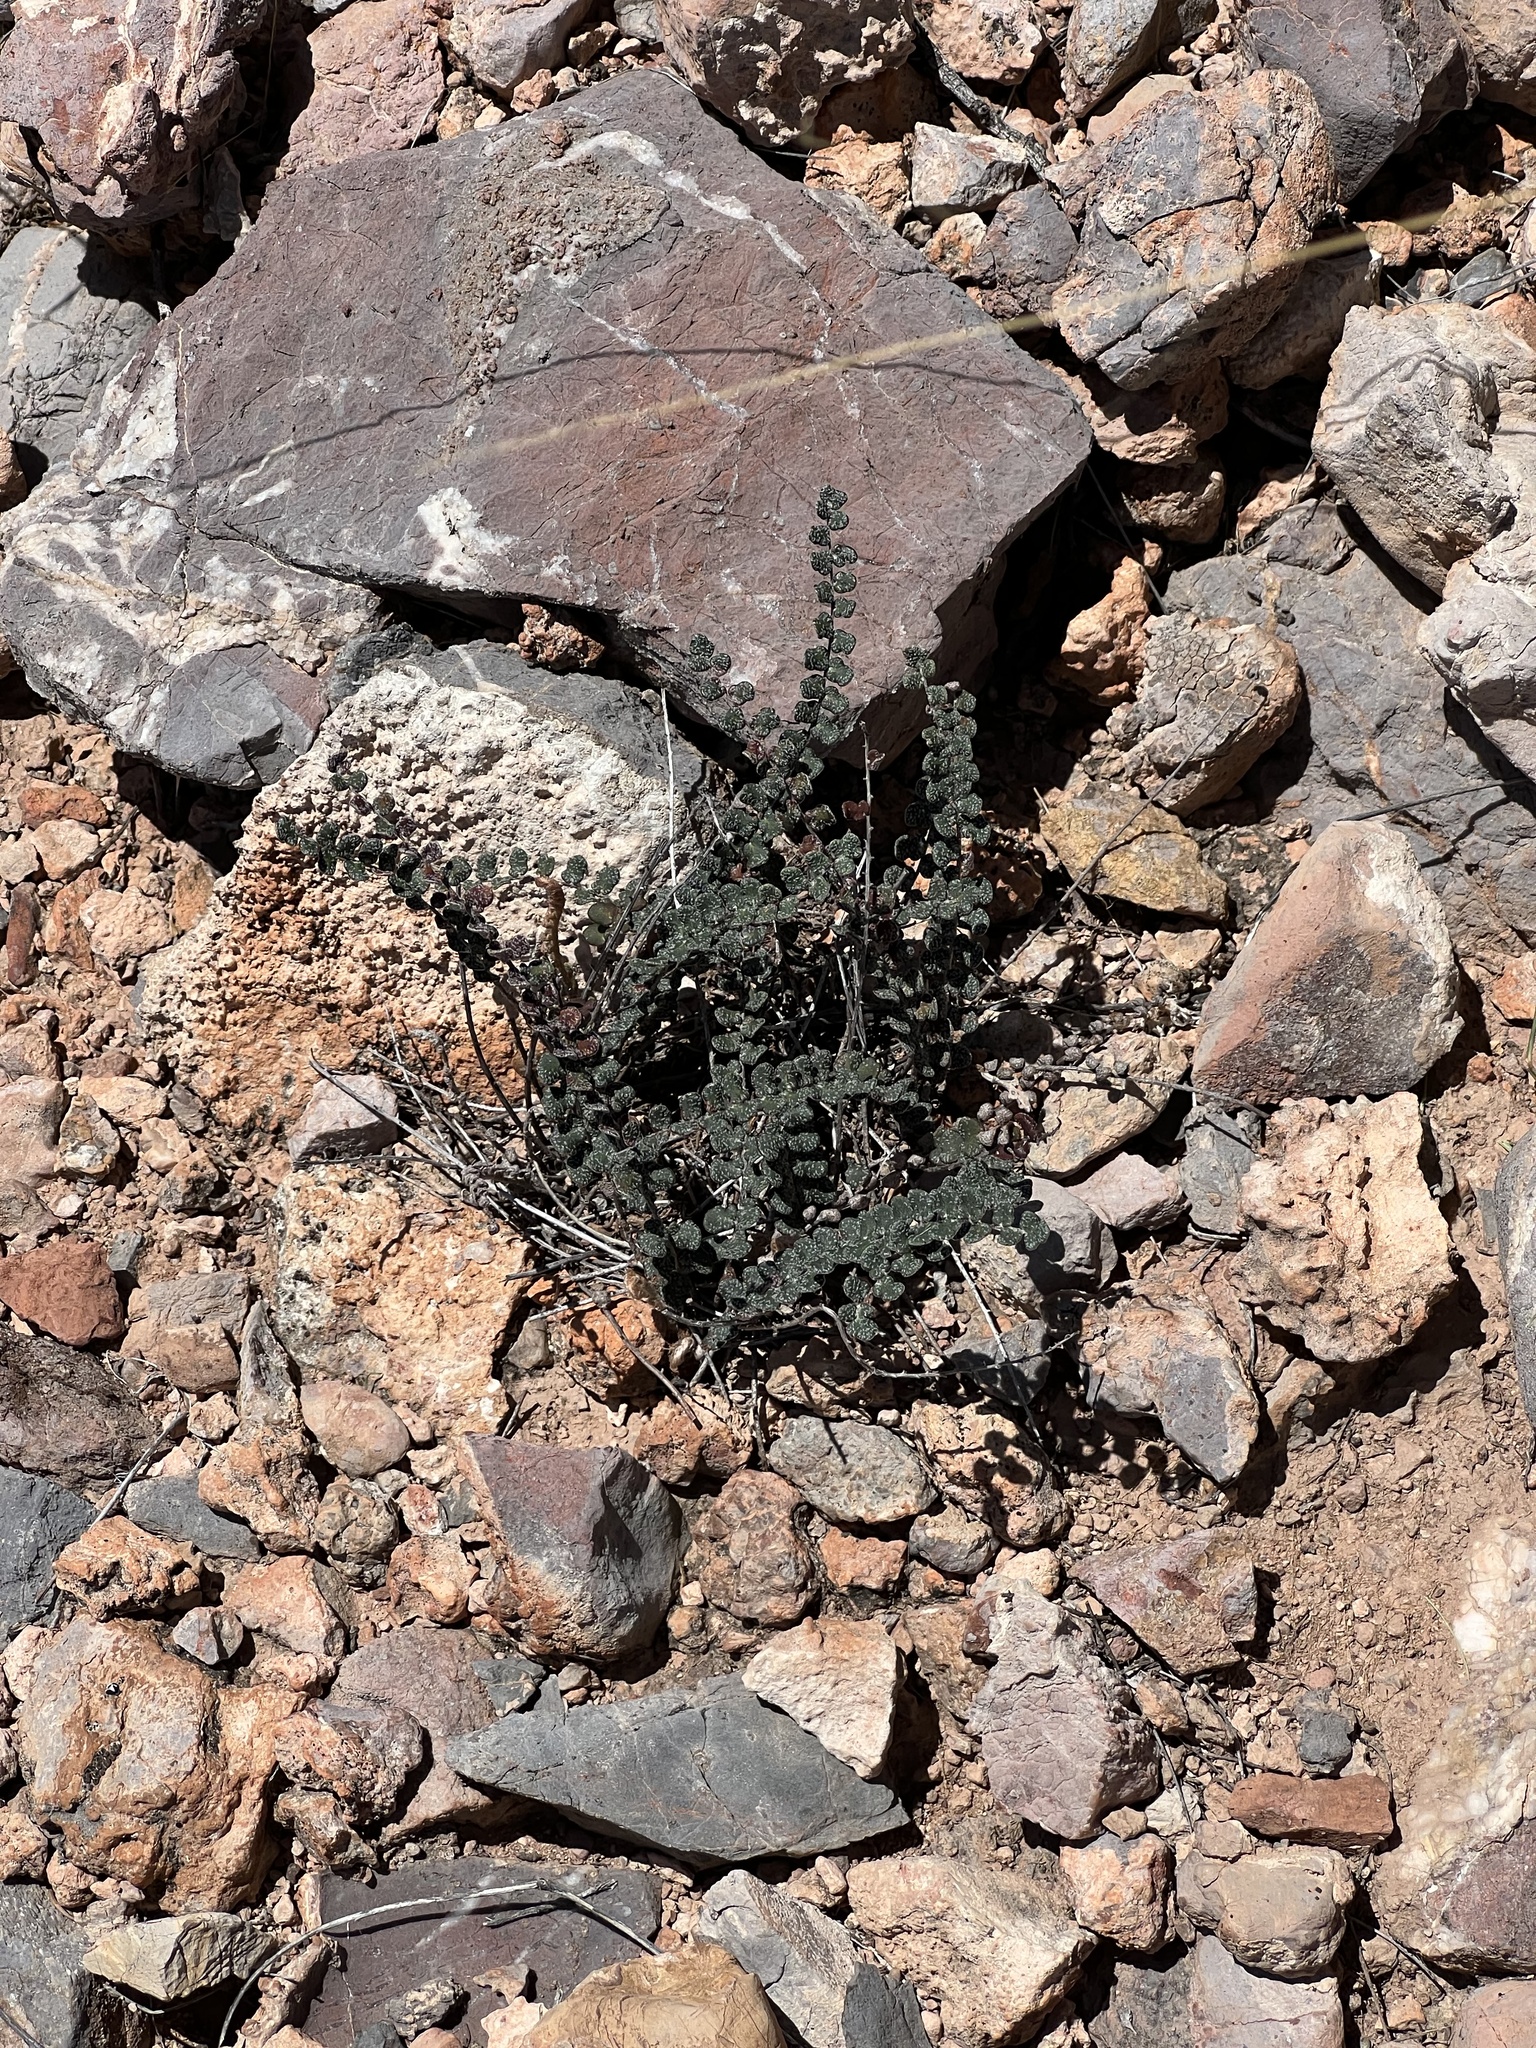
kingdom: Plantae
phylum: Tracheophyta
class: Polypodiopsida
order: Polypodiales
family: Pteridaceae
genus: Astrolepis
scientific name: Astrolepis cochisensis
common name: Scaly cloak fern
